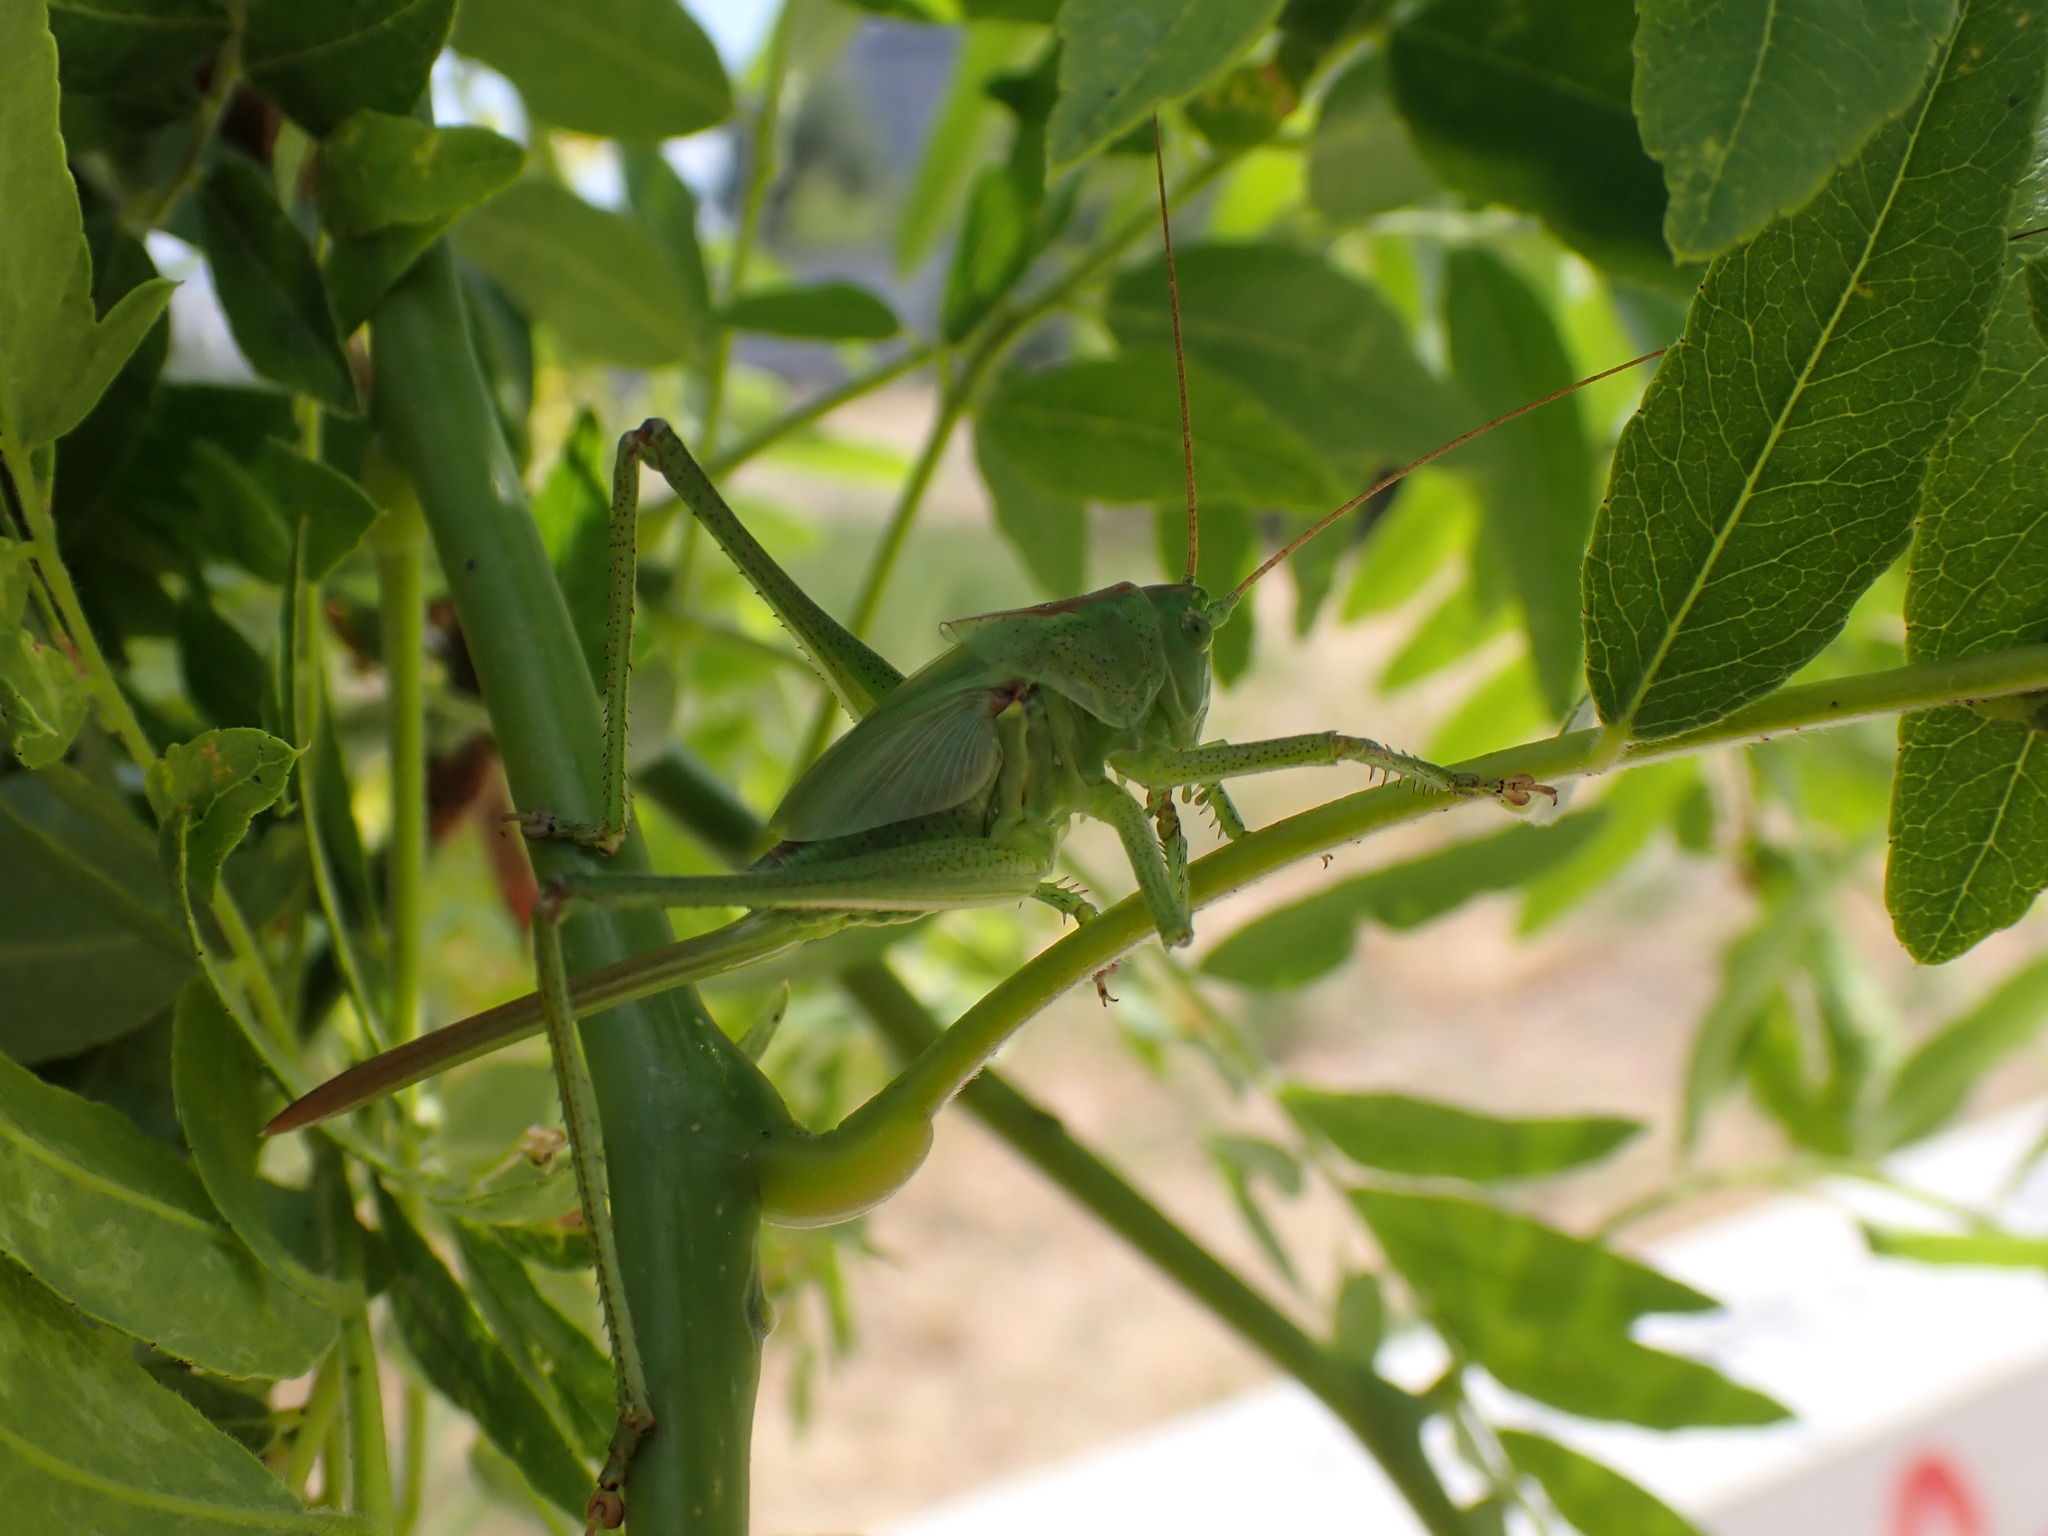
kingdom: Animalia
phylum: Arthropoda
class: Insecta
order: Orthoptera
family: Tettigoniidae
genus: Tettigonia
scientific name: Tettigonia viridissima
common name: Great green bush-cricket
